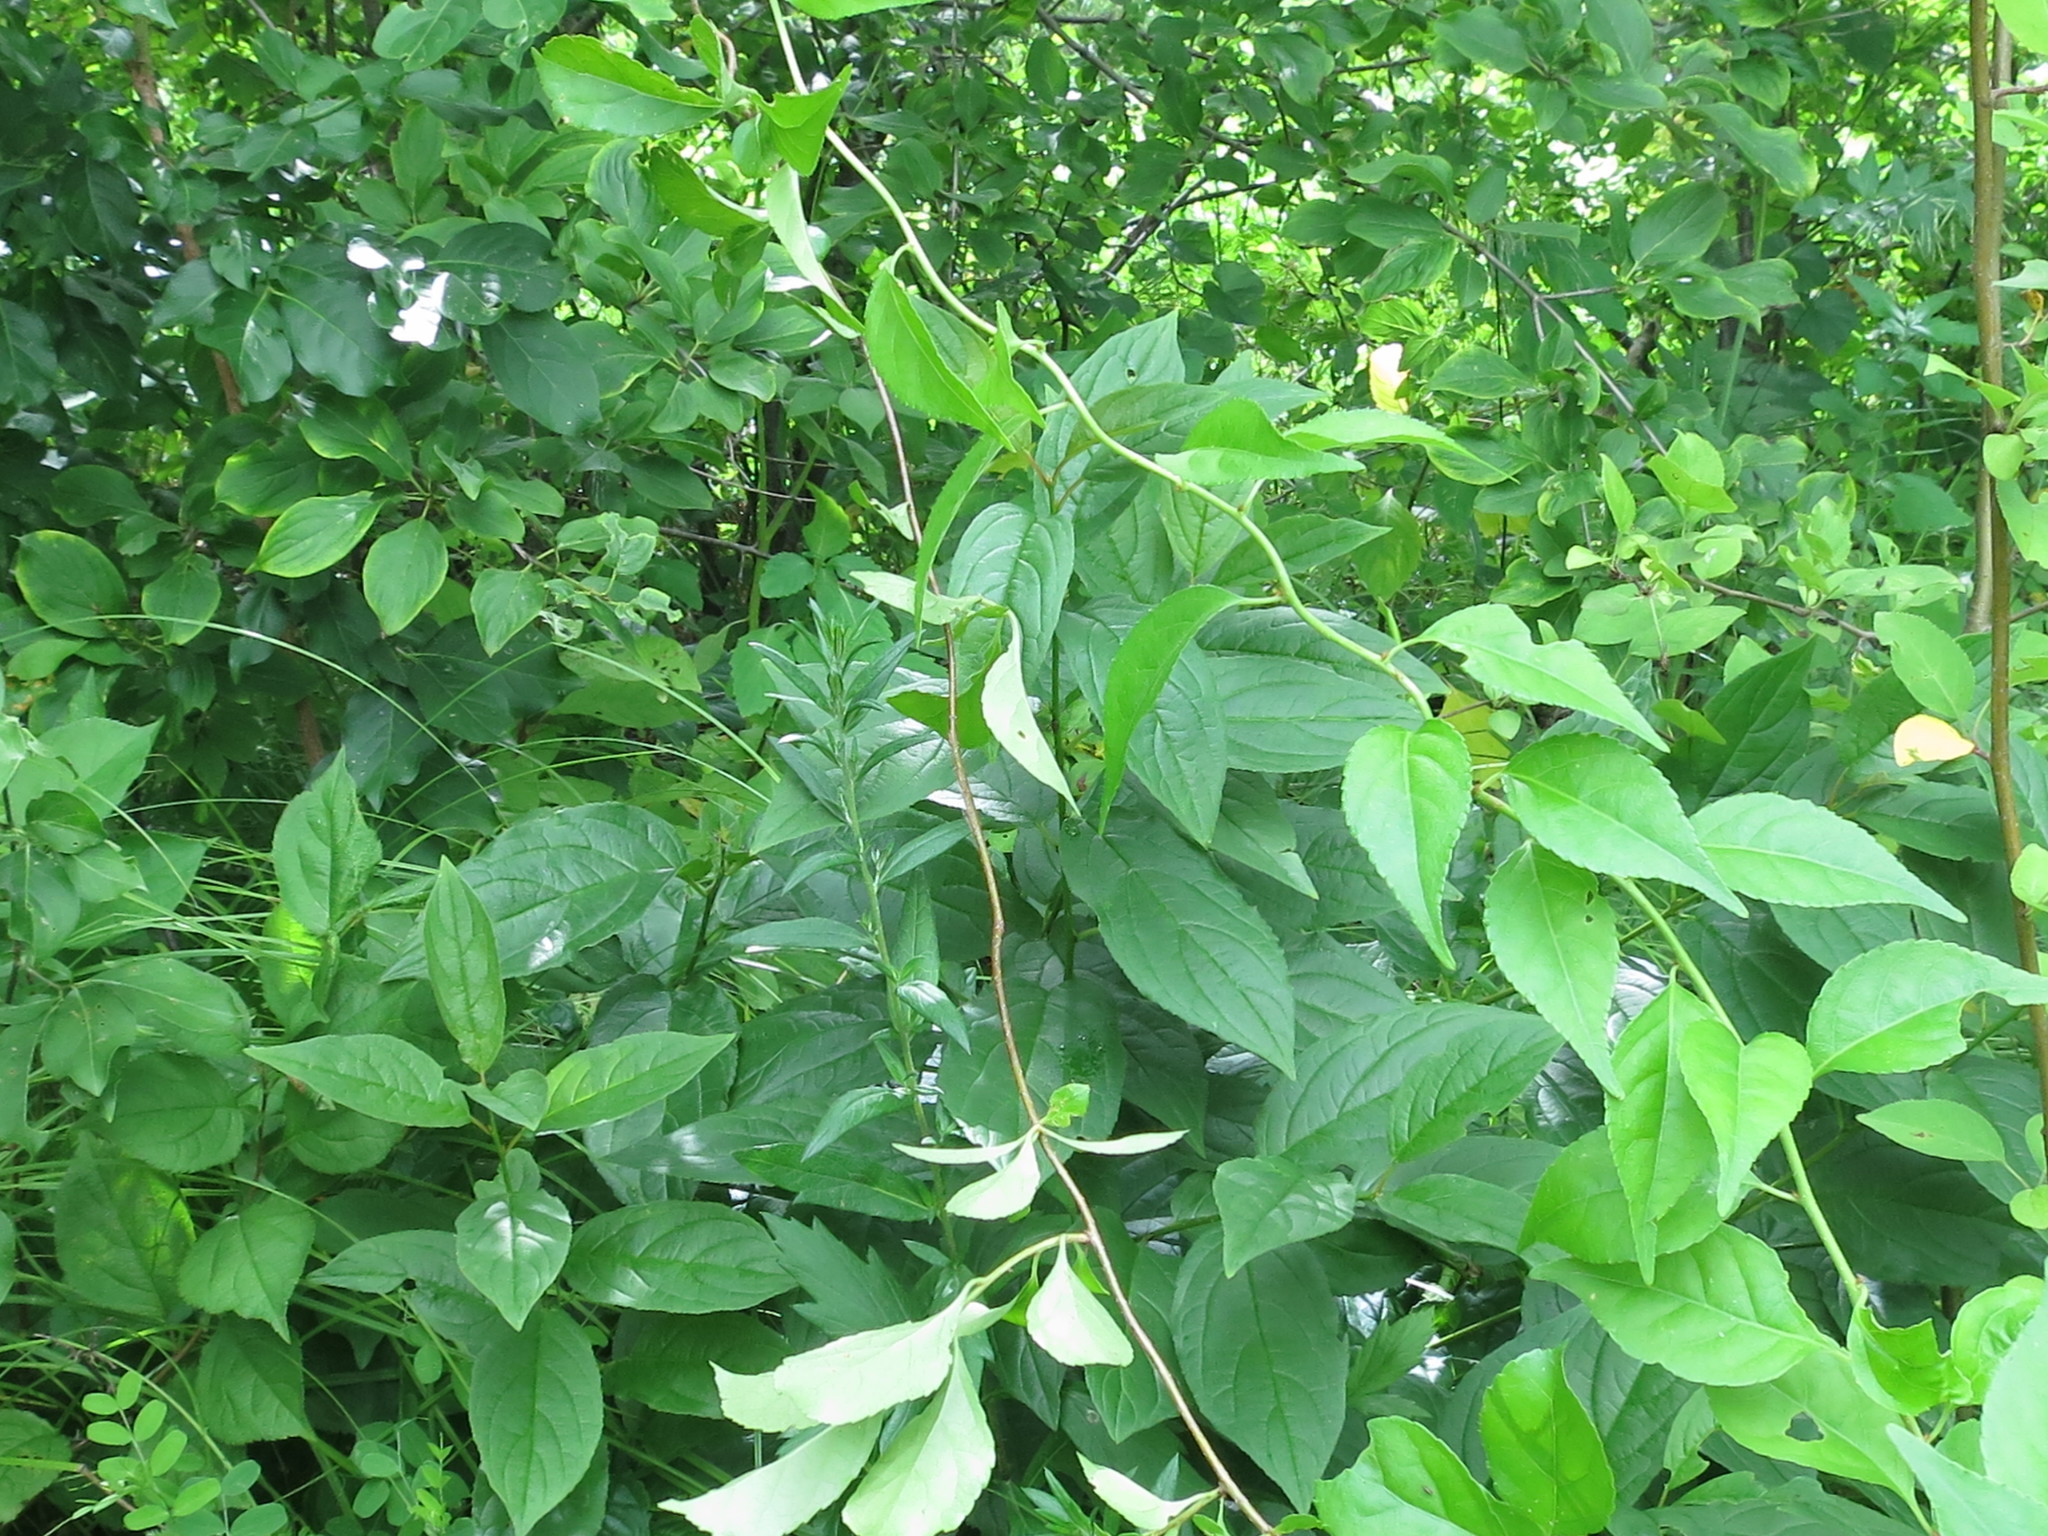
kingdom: Plantae
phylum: Tracheophyta
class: Magnoliopsida
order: Celastrales
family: Celastraceae
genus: Celastrus
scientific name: Celastrus orbiculatus
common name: Oriental bittersweet
